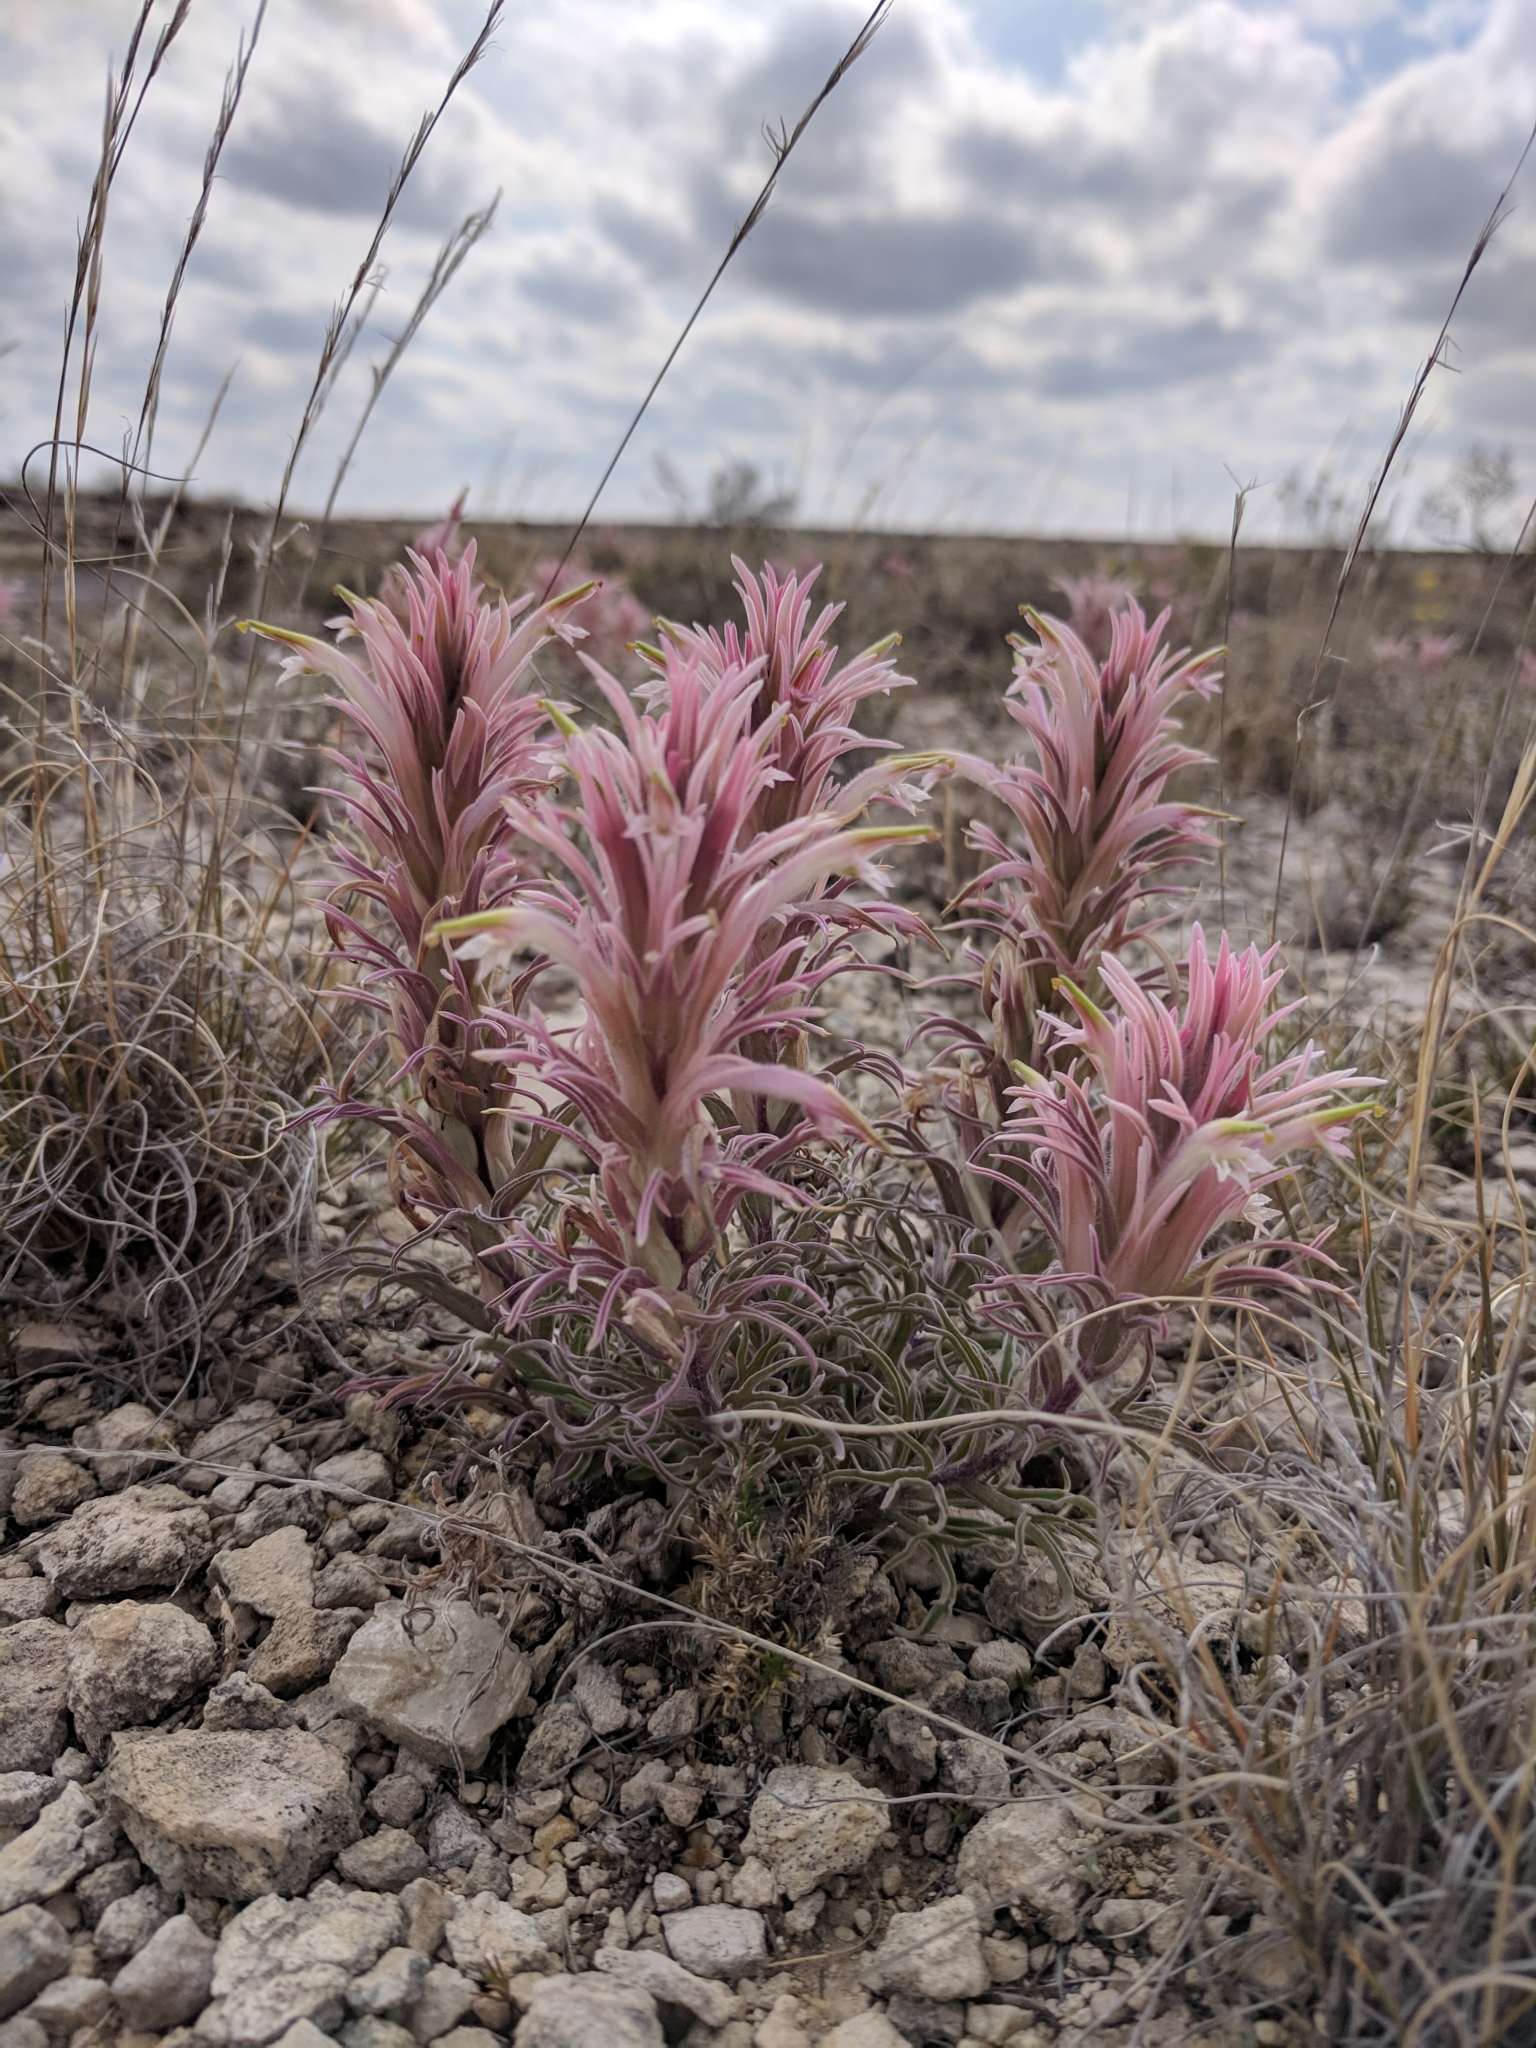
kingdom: Plantae
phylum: Tracheophyta
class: Magnoliopsida
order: Lamiales
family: Orobanchaceae
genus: Castilleja
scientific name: Castilleja sessiliflora
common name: Downy paintbrush
